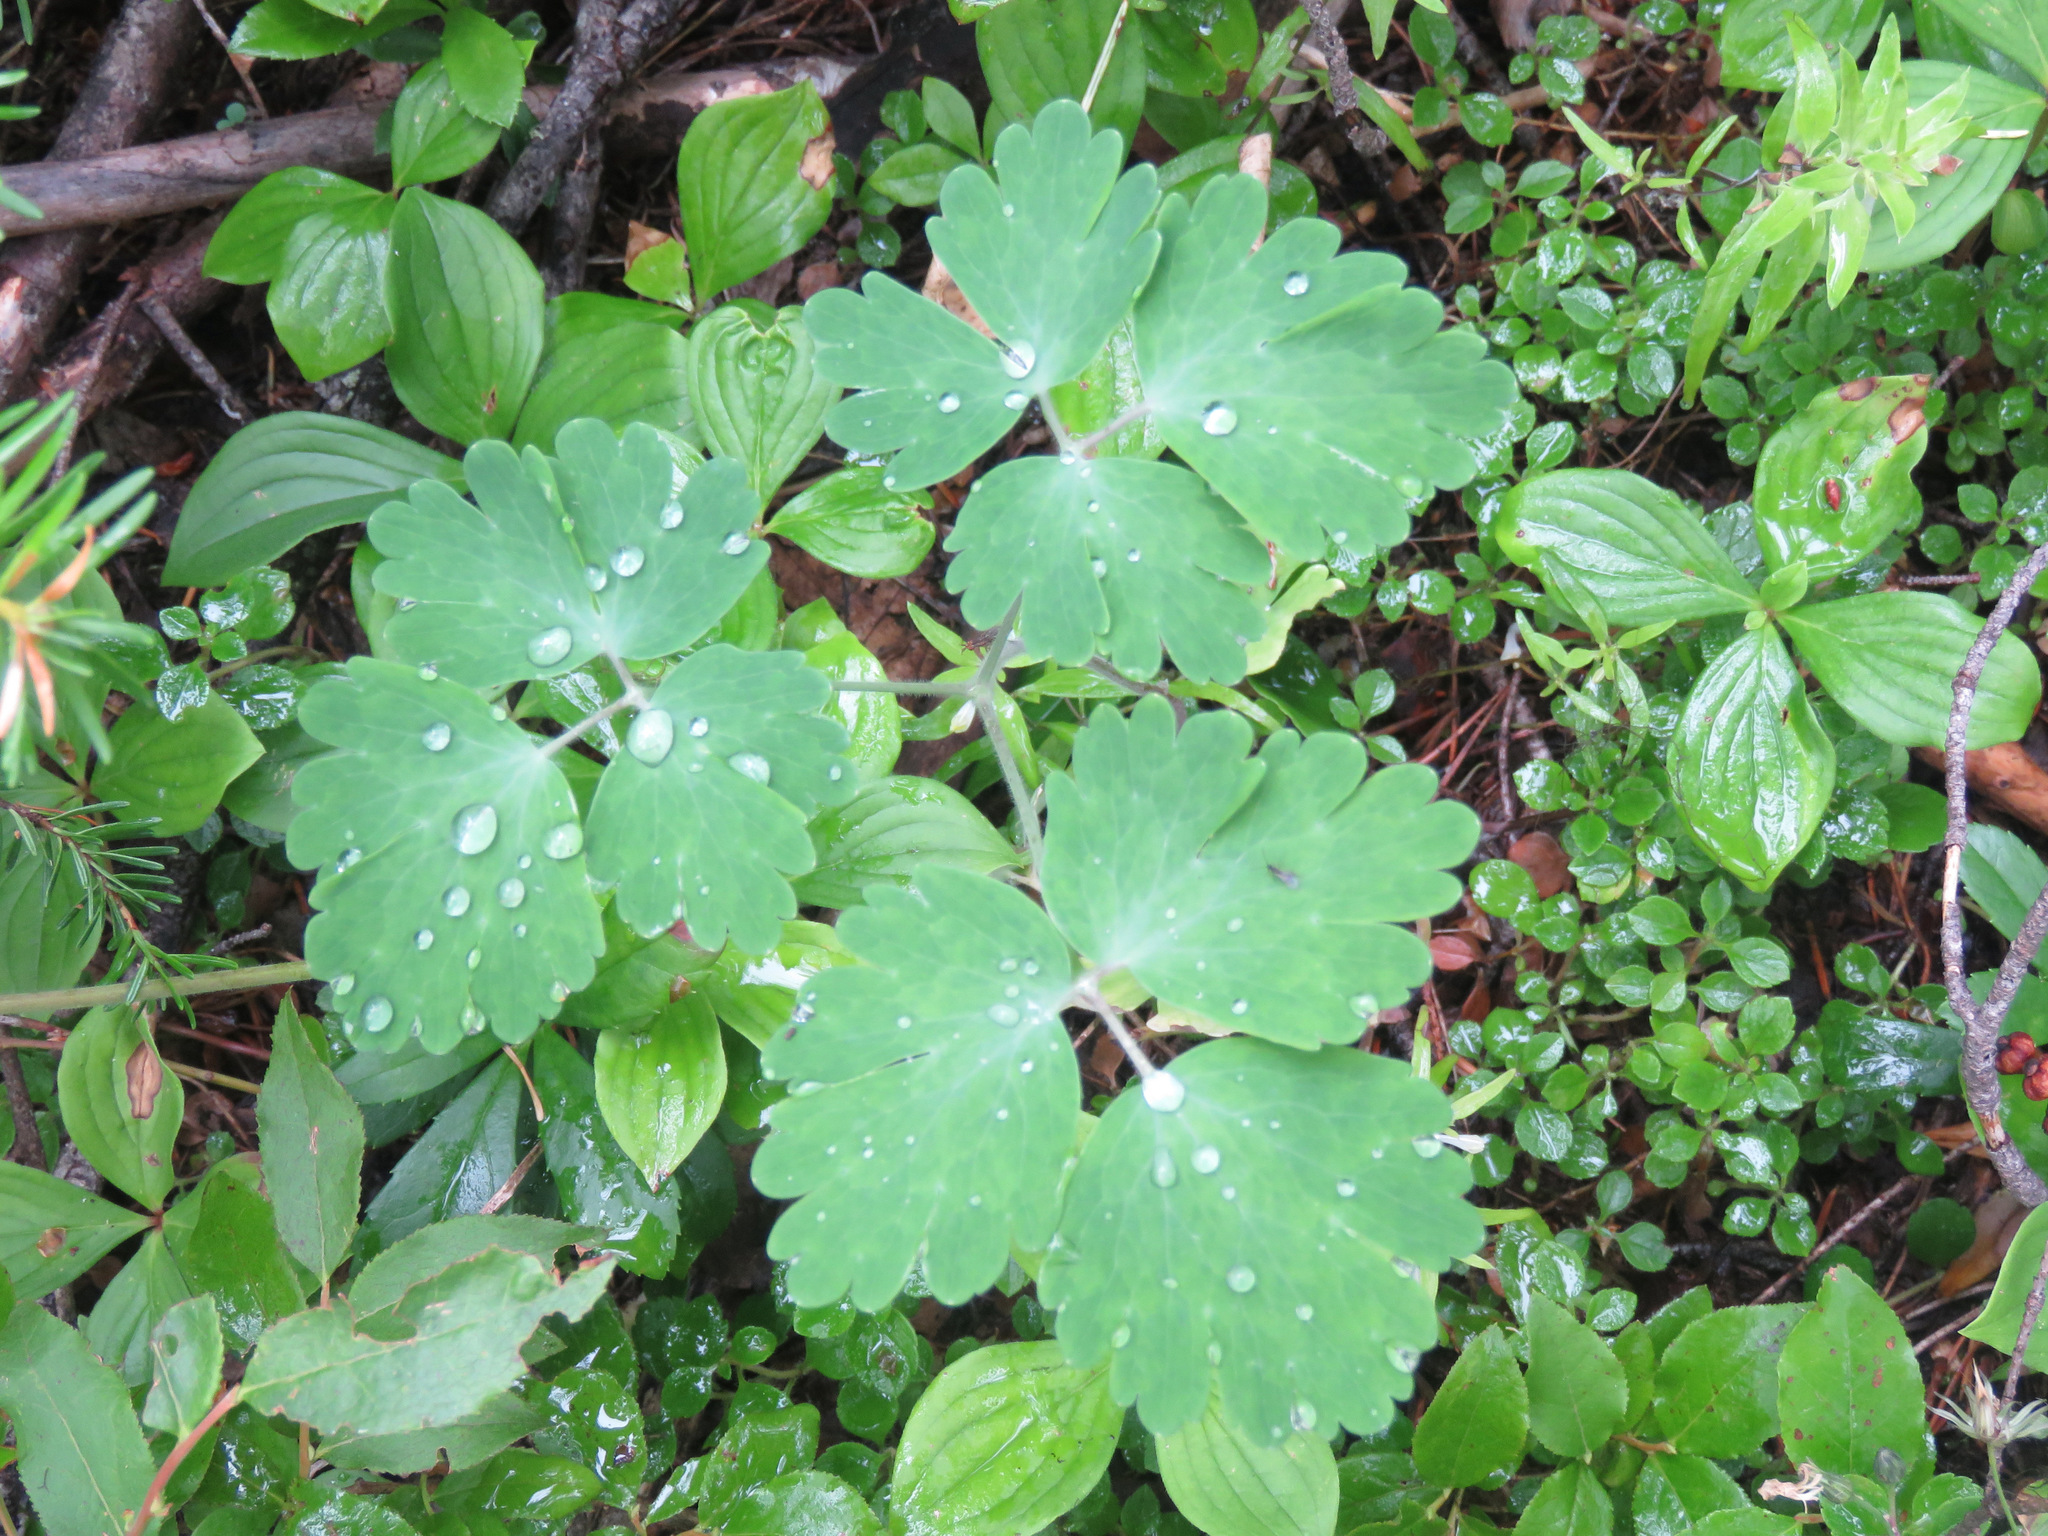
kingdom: Plantae
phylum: Tracheophyta
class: Magnoliopsida
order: Ranunculales
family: Ranunculaceae
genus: Aquilegia
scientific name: Aquilegia formosa
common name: Sitka columbine
